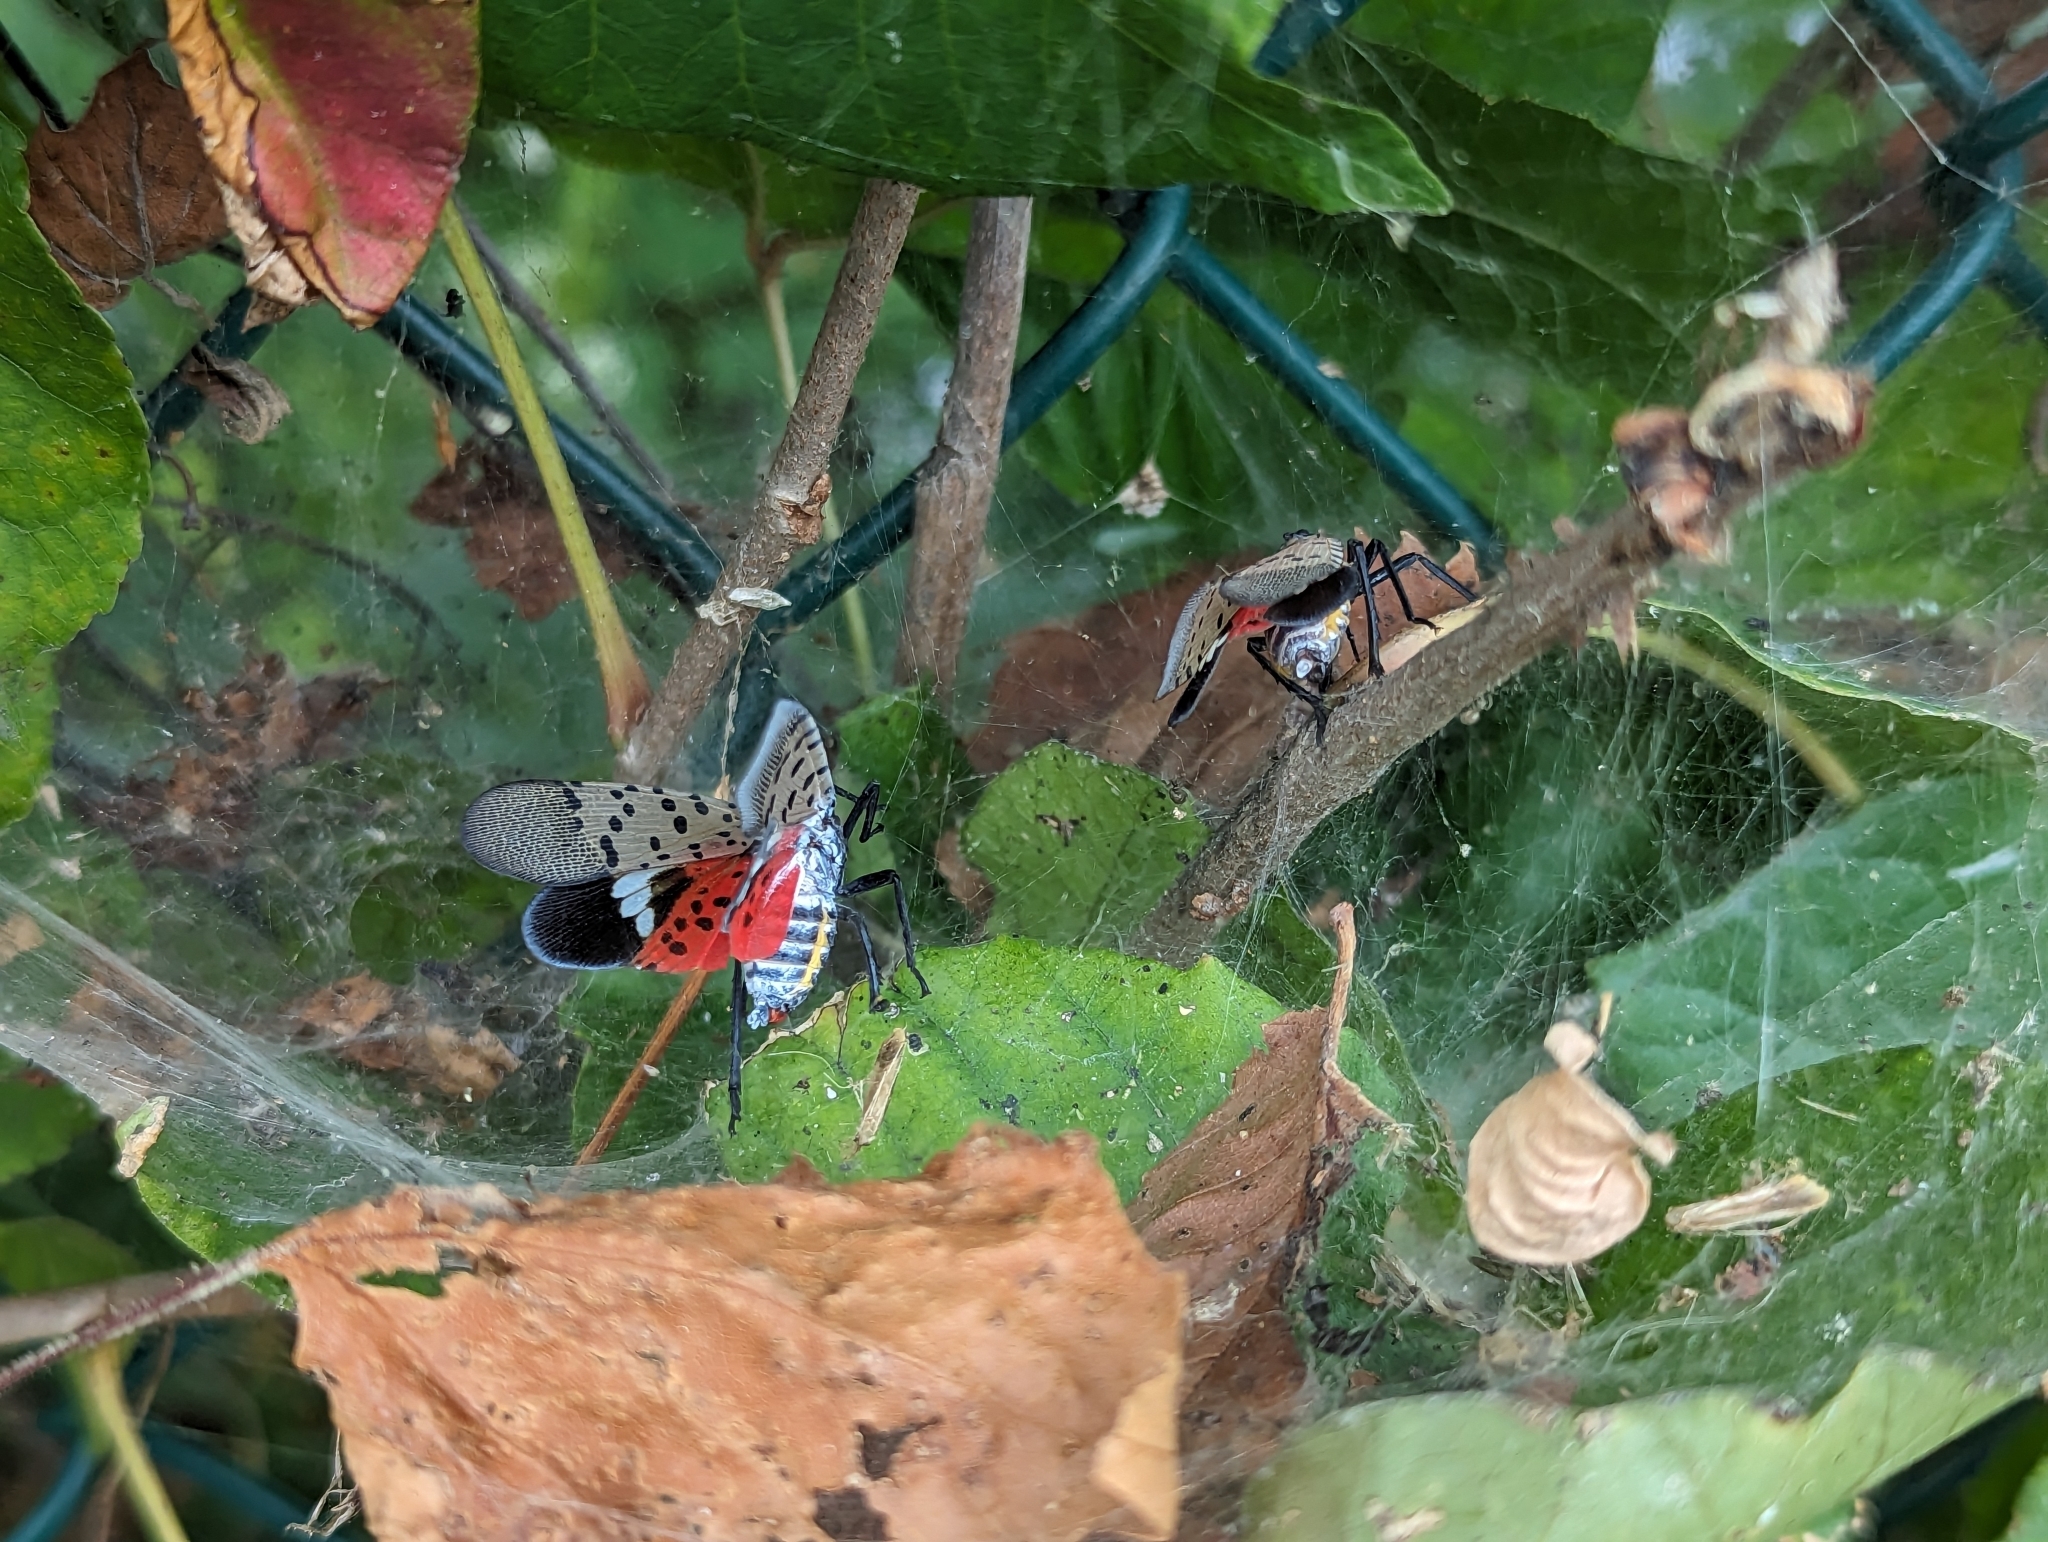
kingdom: Animalia
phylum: Arthropoda
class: Insecta
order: Hemiptera
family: Fulgoridae
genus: Lycorma
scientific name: Lycorma delicatula
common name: Spotted lanternfly
